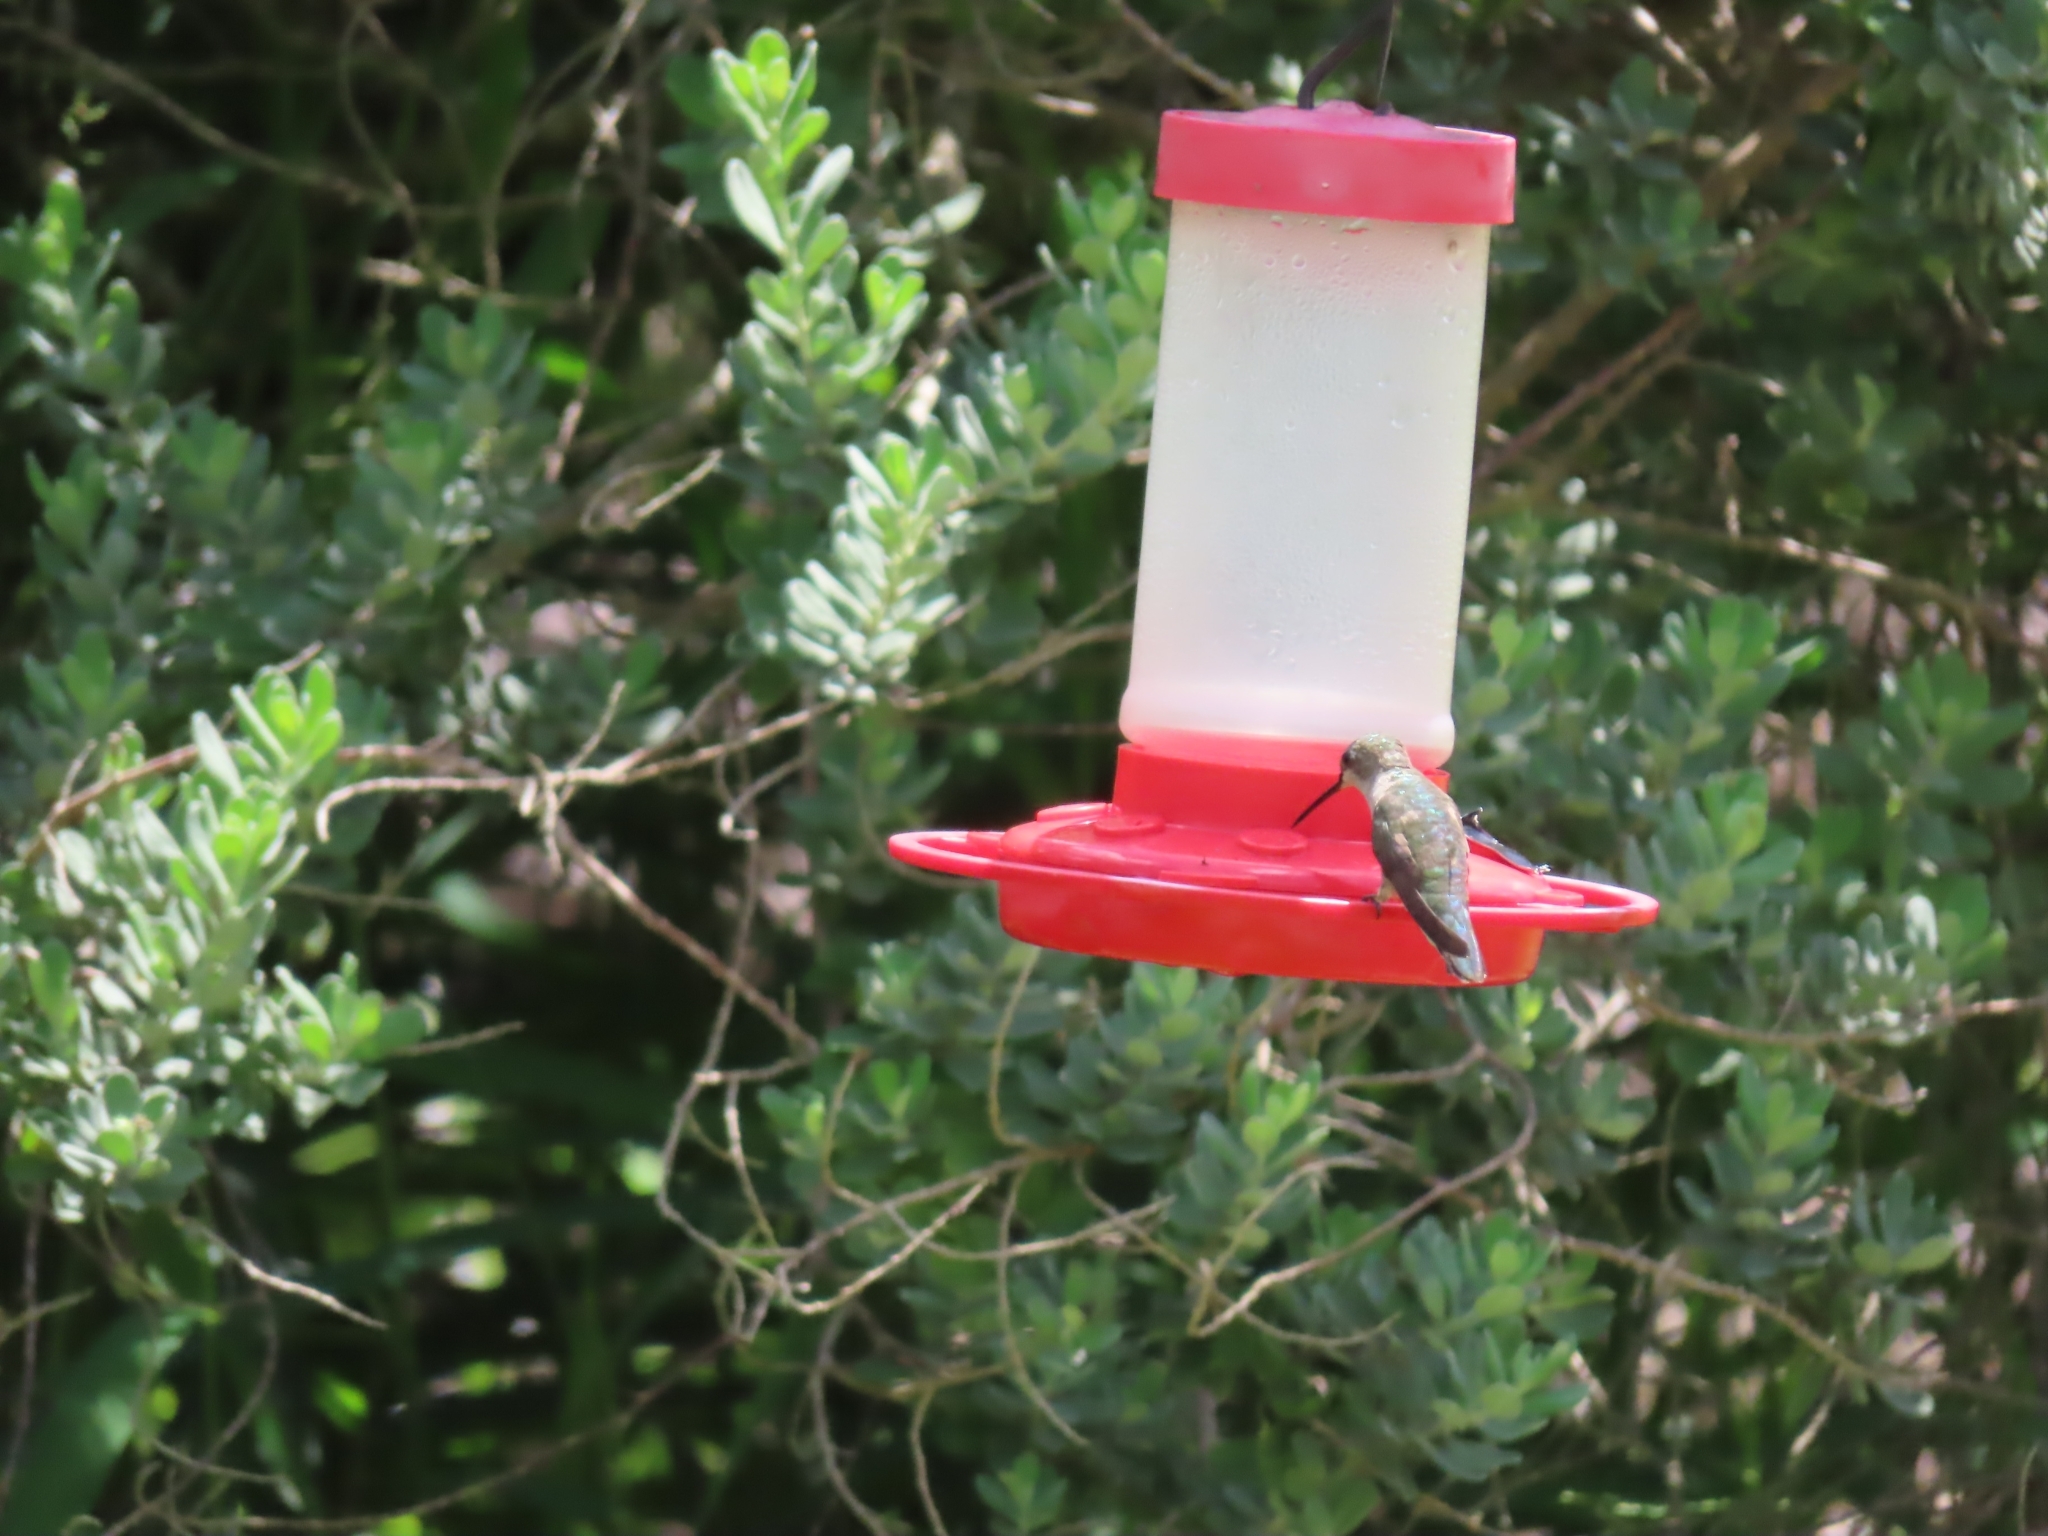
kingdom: Animalia
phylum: Chordata
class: Aves
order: Apodiformes
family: Trochilidae
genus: Archilochus
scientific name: Archilochus alexandri
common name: Black-chinned hummingbird
